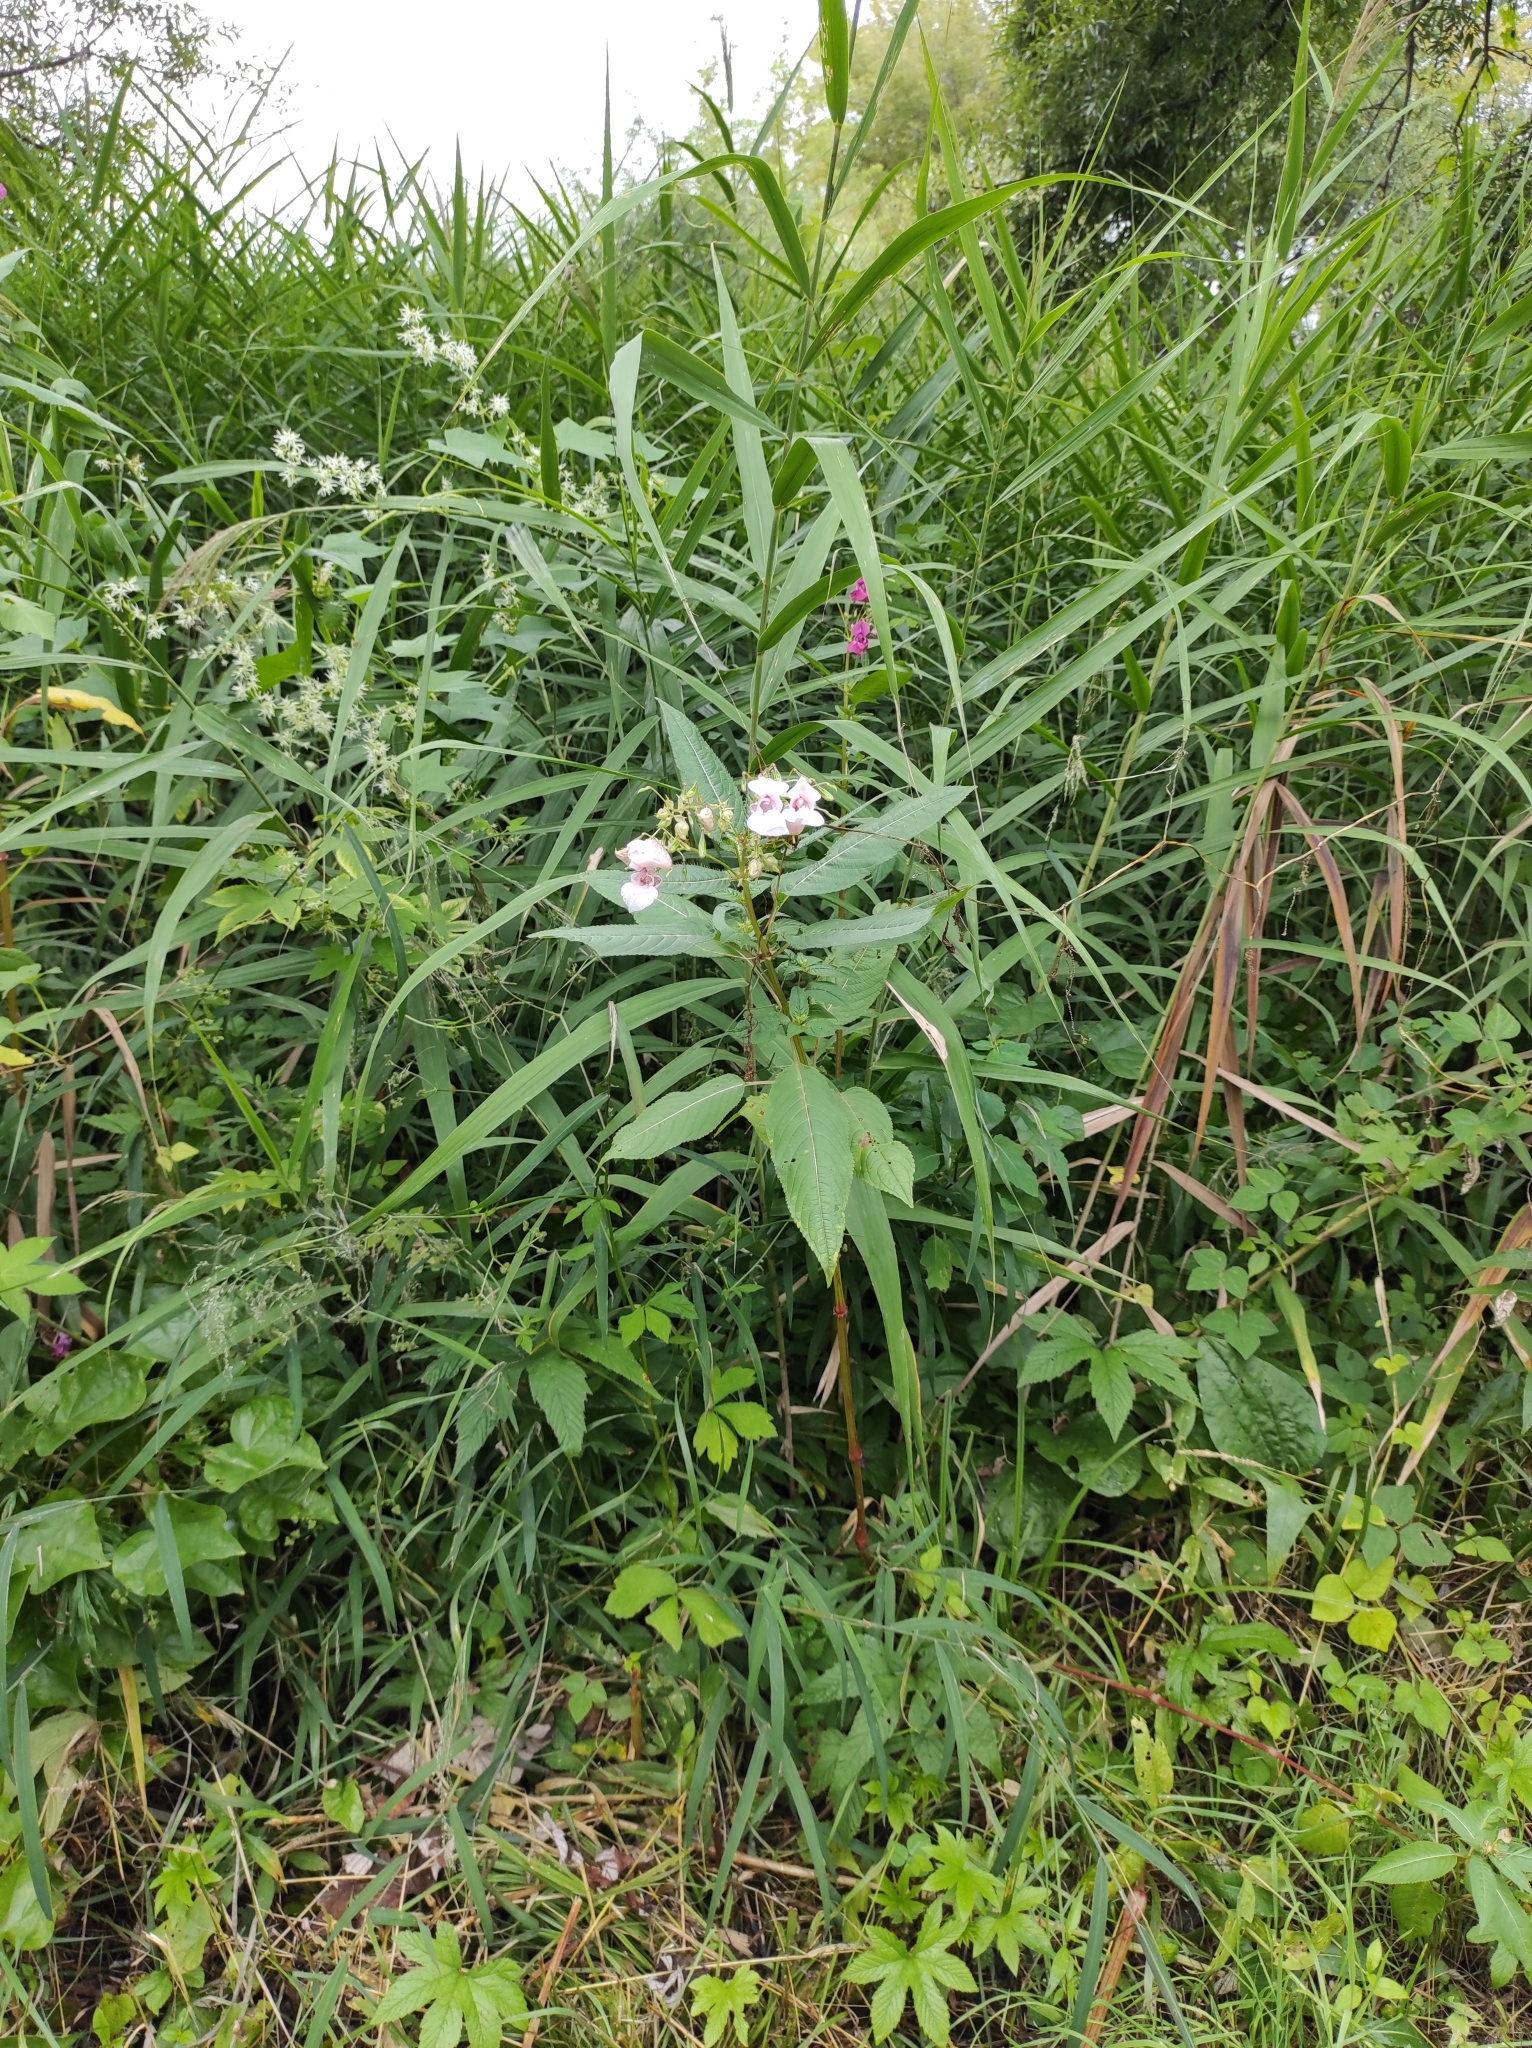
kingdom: Plantae
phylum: Tracheophyta
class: Magnoliopsida
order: Ericales
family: Balsaminaceae
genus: Impatiens
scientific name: Impatiens glandulifera
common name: Himalayan balsam
